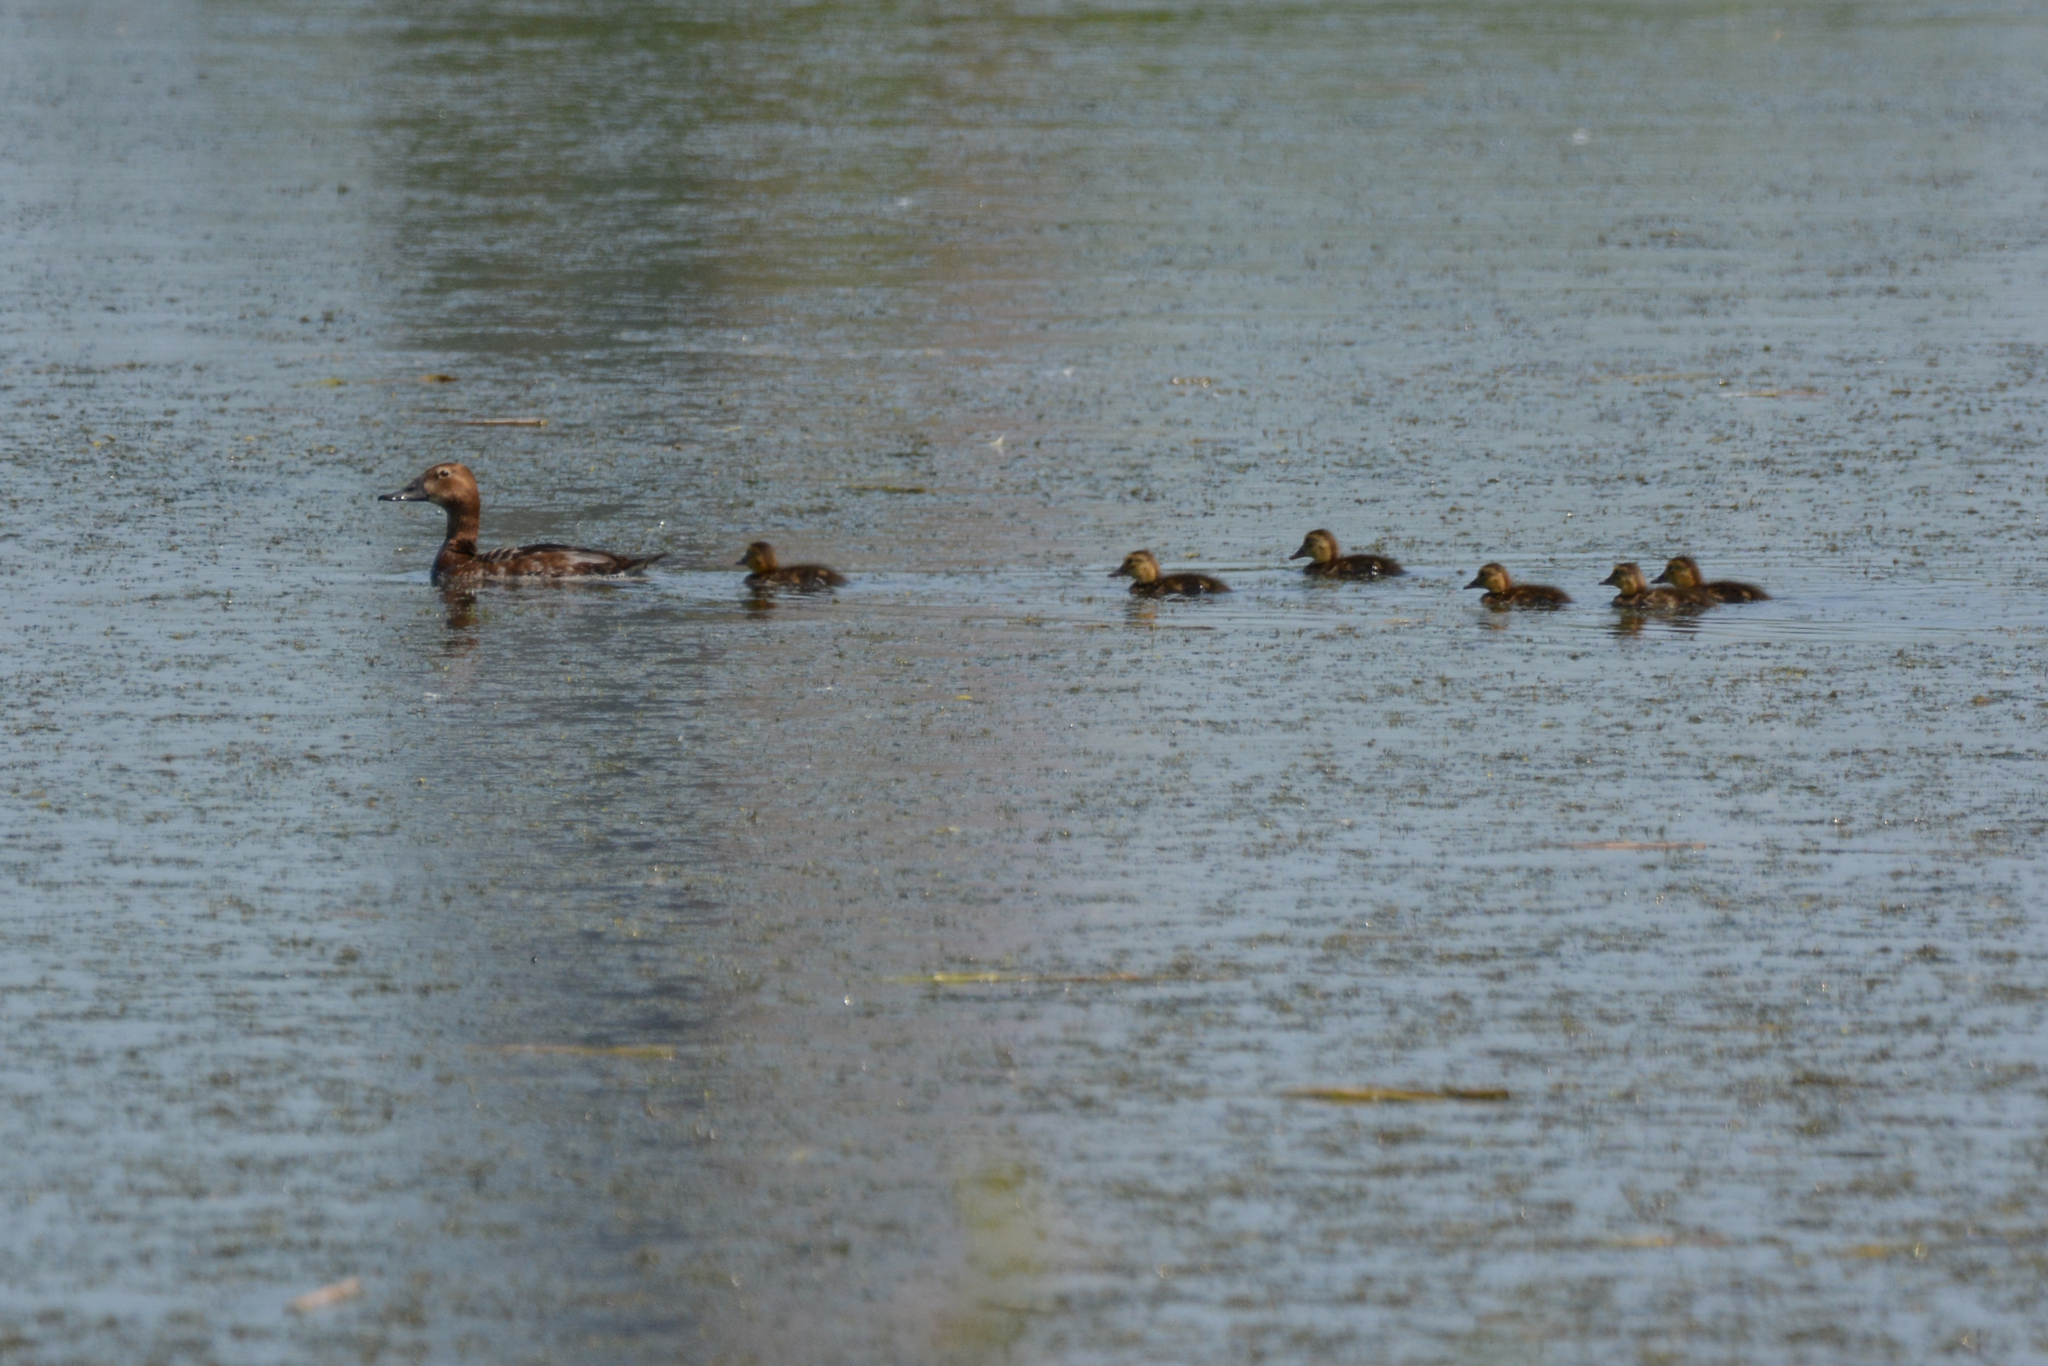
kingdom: Animalia
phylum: Chordata
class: Aves
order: Anseriformes
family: Anatidae
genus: Aythya
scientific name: Aythya ferina
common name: Common pochard
